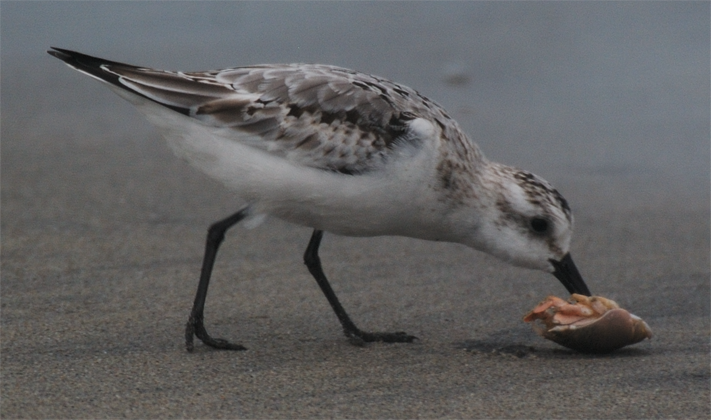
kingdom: Animalia
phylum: Chordata
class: Aves
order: Charadriiformes
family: Scolopacidae
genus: Calidris
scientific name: Calidris alba
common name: Sanderling
